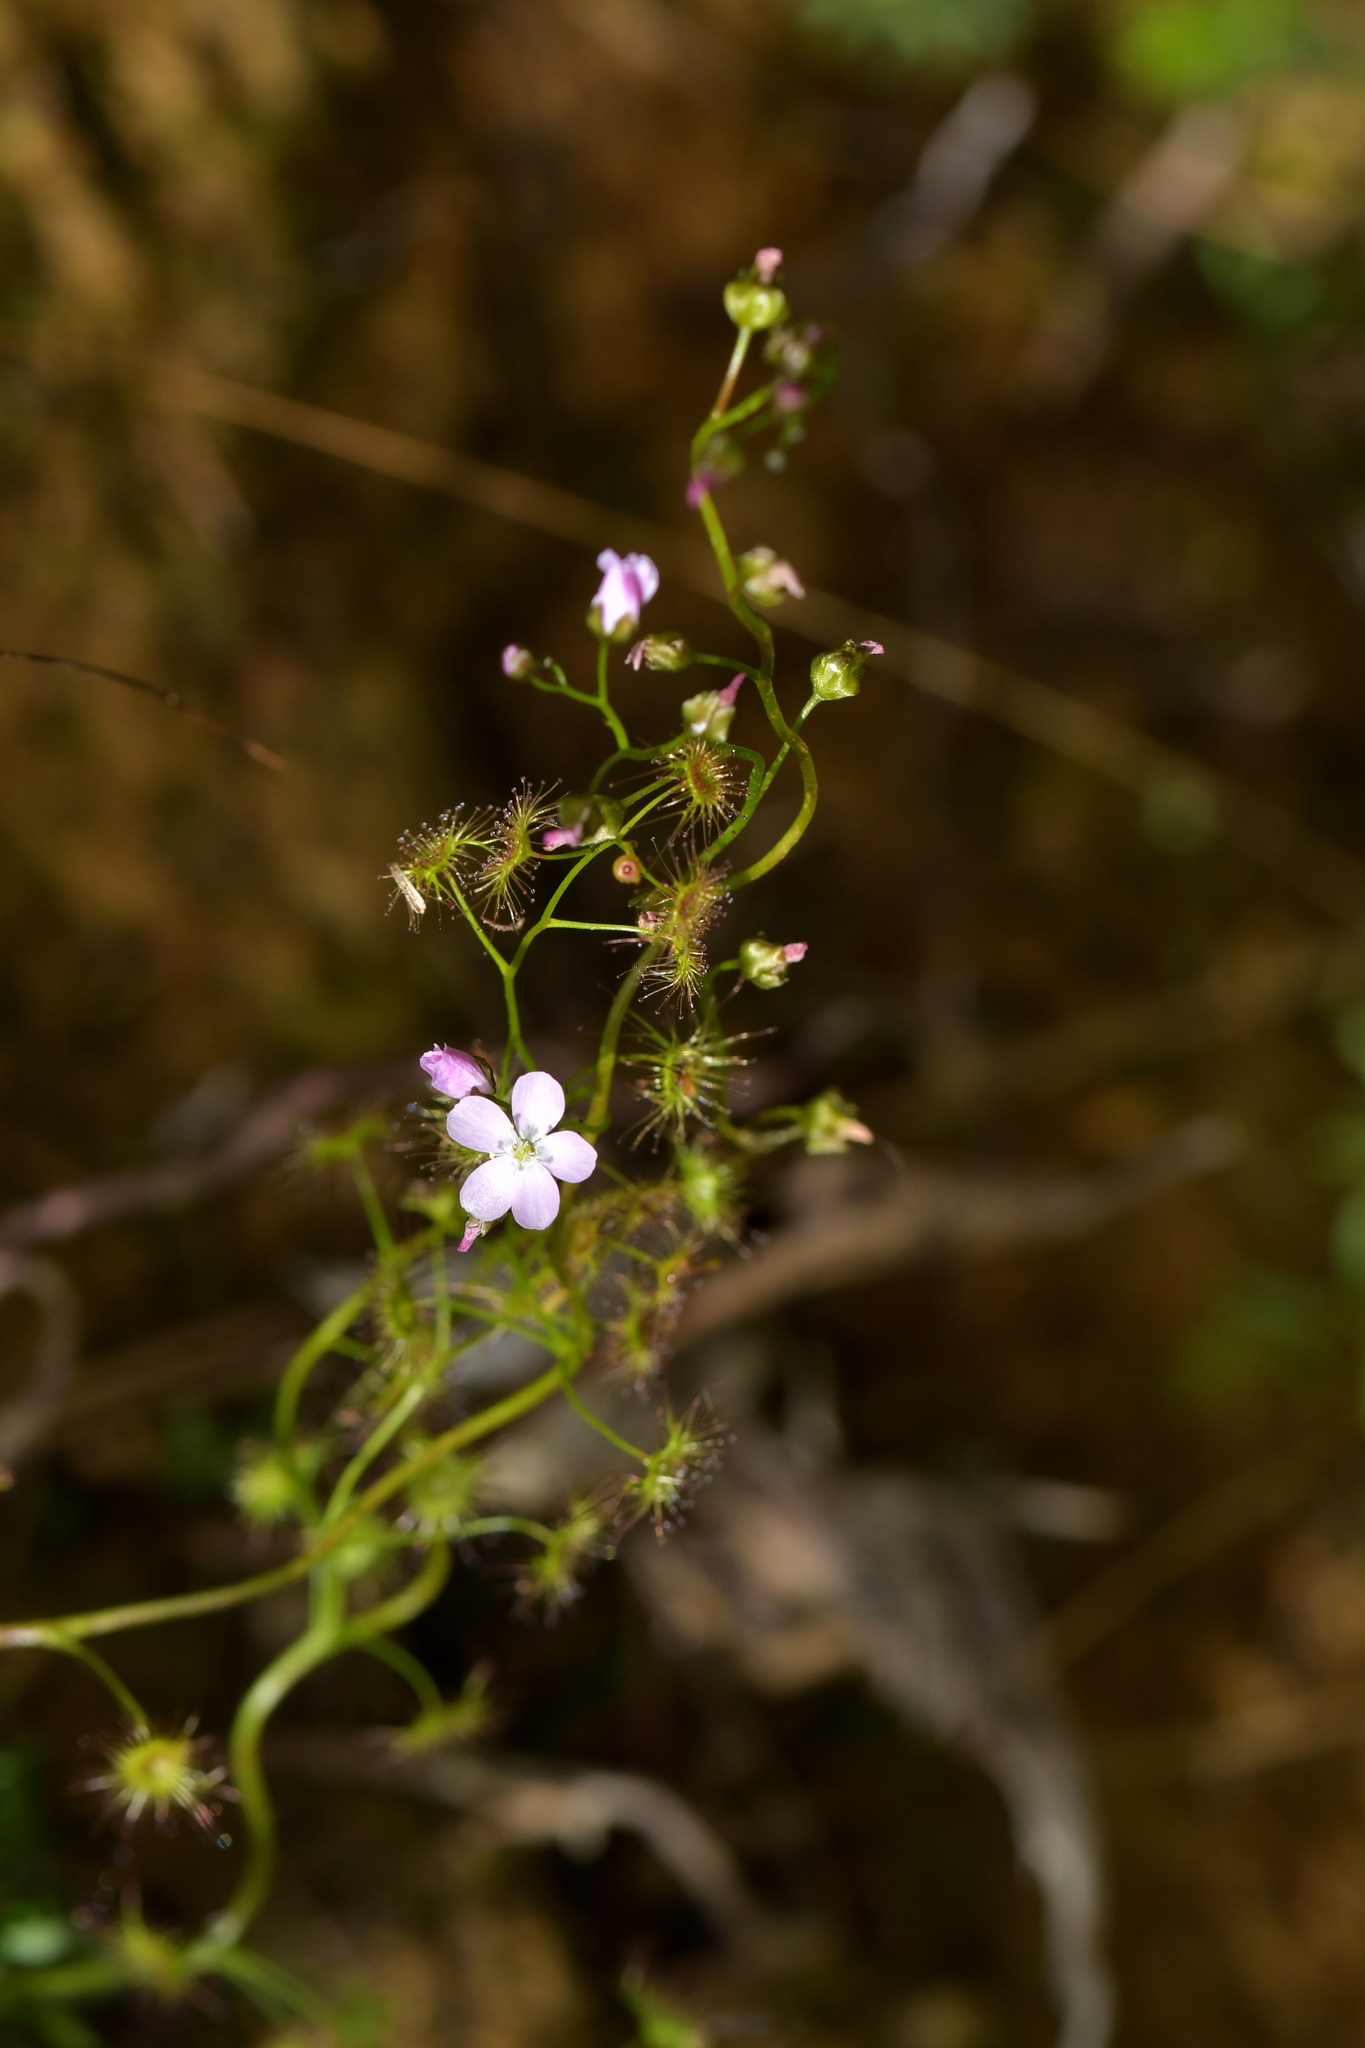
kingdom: Plantae
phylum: Tracheophyta
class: Magnoliopsida
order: Caryophyllales
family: Droseraceae
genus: Drosera
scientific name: Drosera peltata
